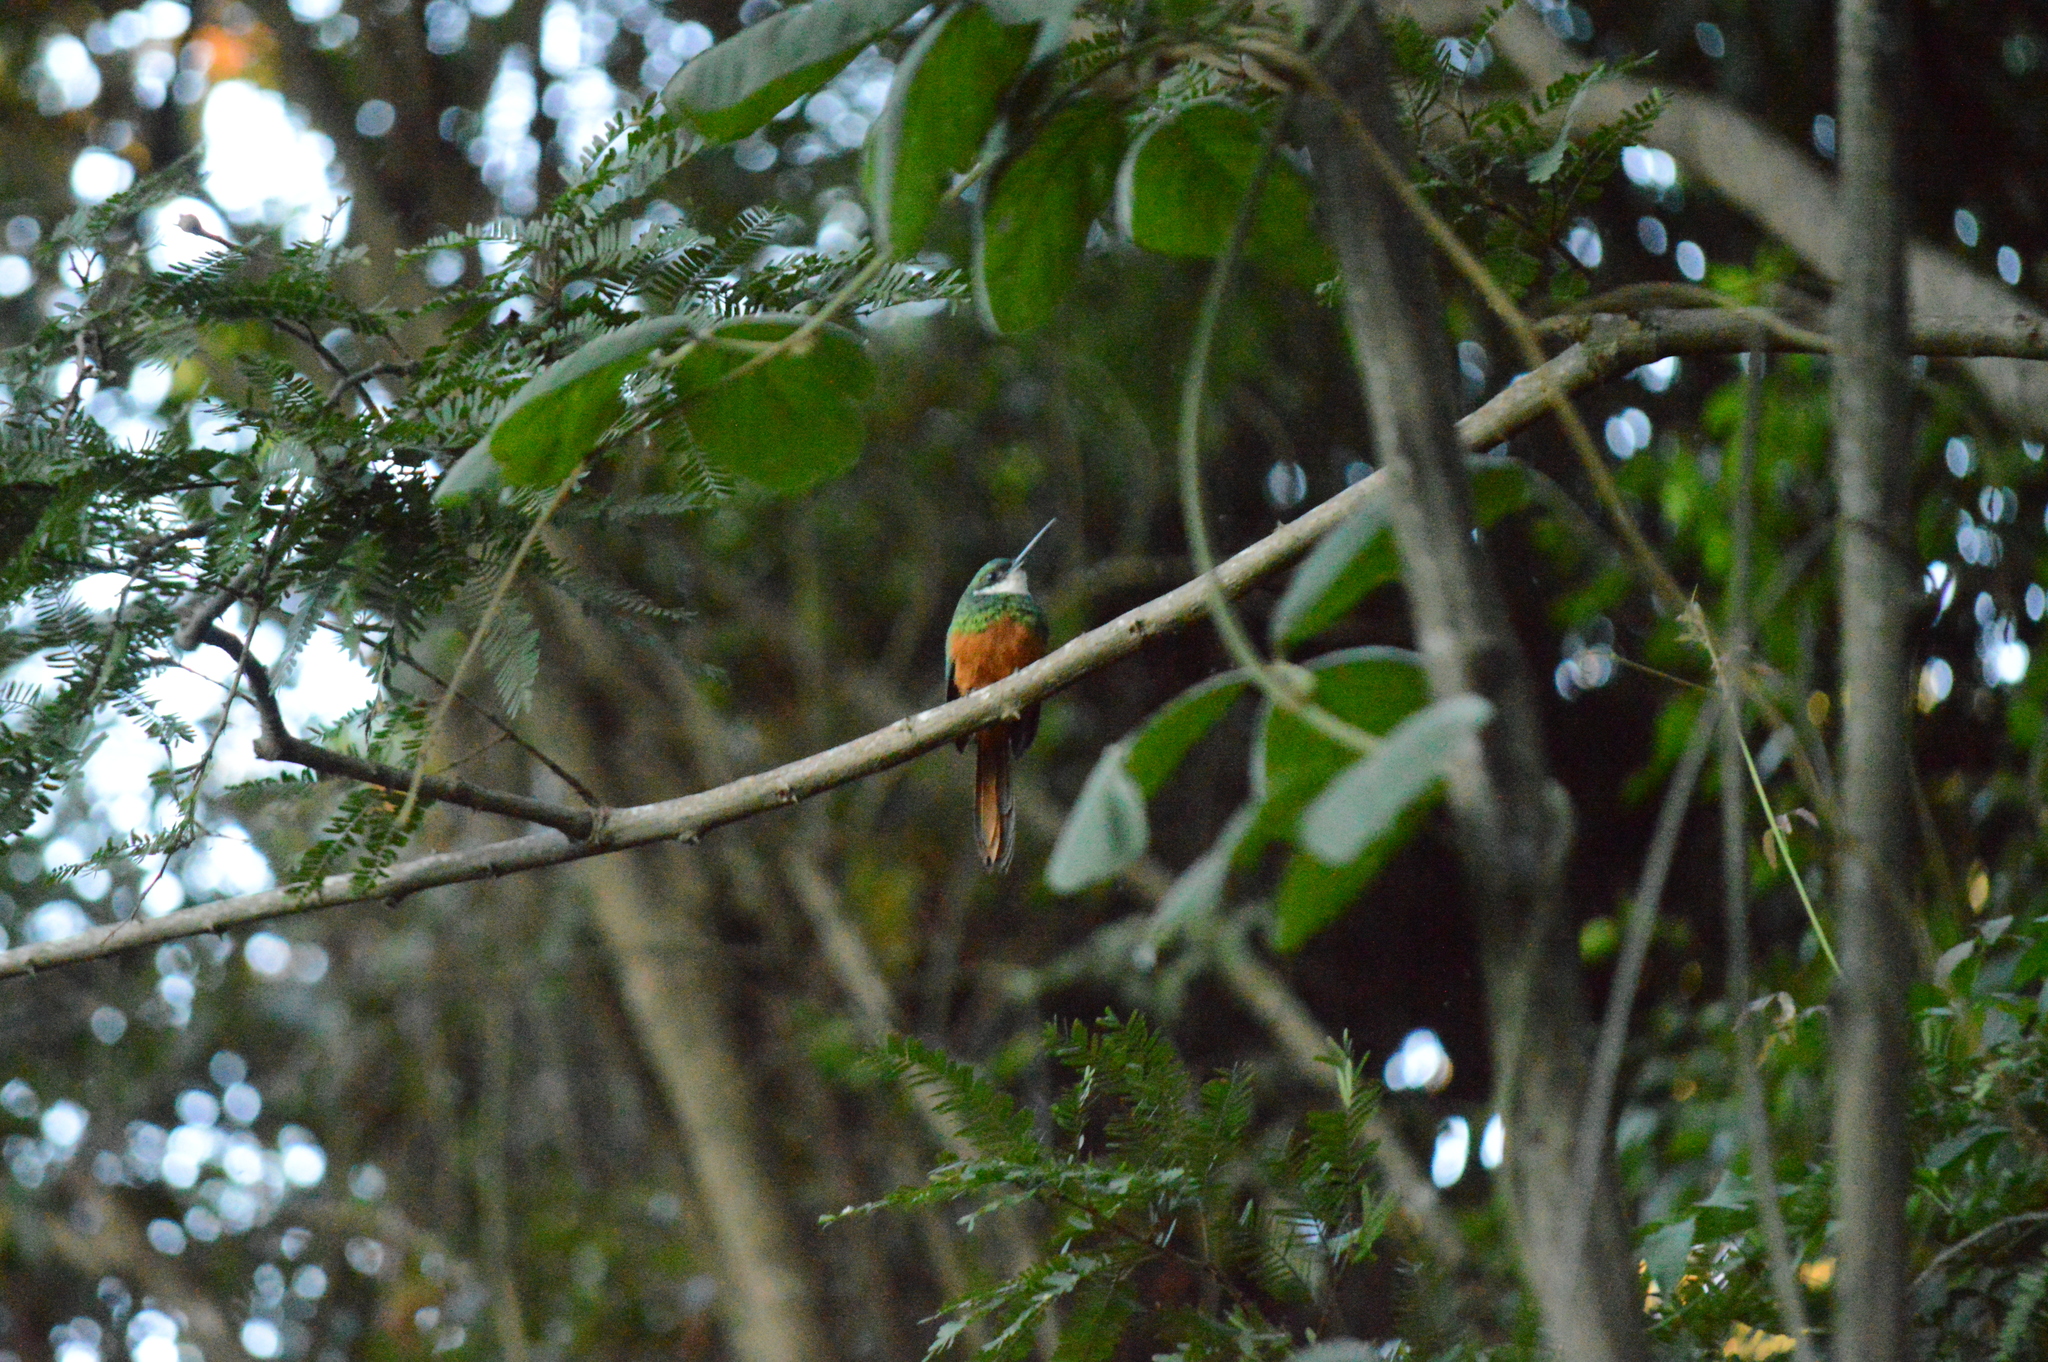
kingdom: Animalia
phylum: Chordata
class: Aves
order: Piciformes
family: Galbulidae
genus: Galbula
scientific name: Galbula ruficauda
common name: Rufous-tailed jacamar
